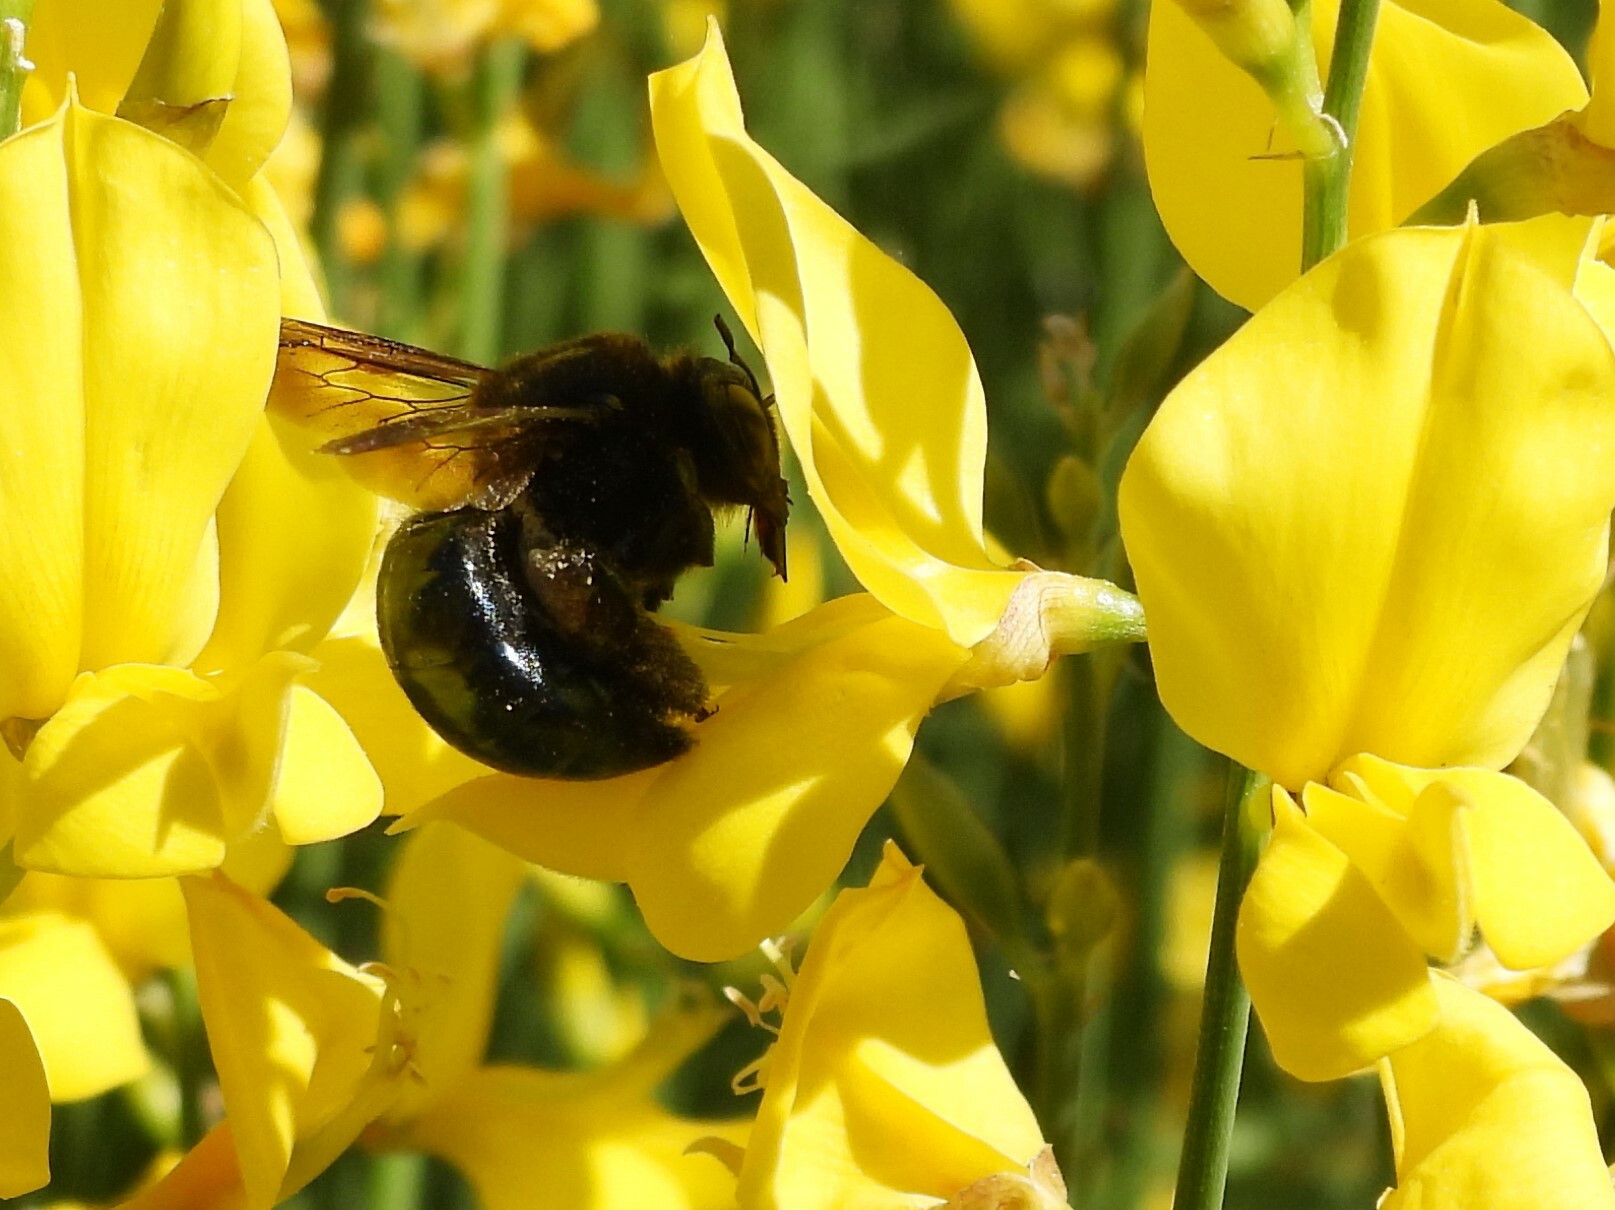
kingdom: Animalia
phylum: Arthropoda
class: Insecta
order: Hymenoptera
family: Apidae
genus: Xylocopa
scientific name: Xylocopa californica
